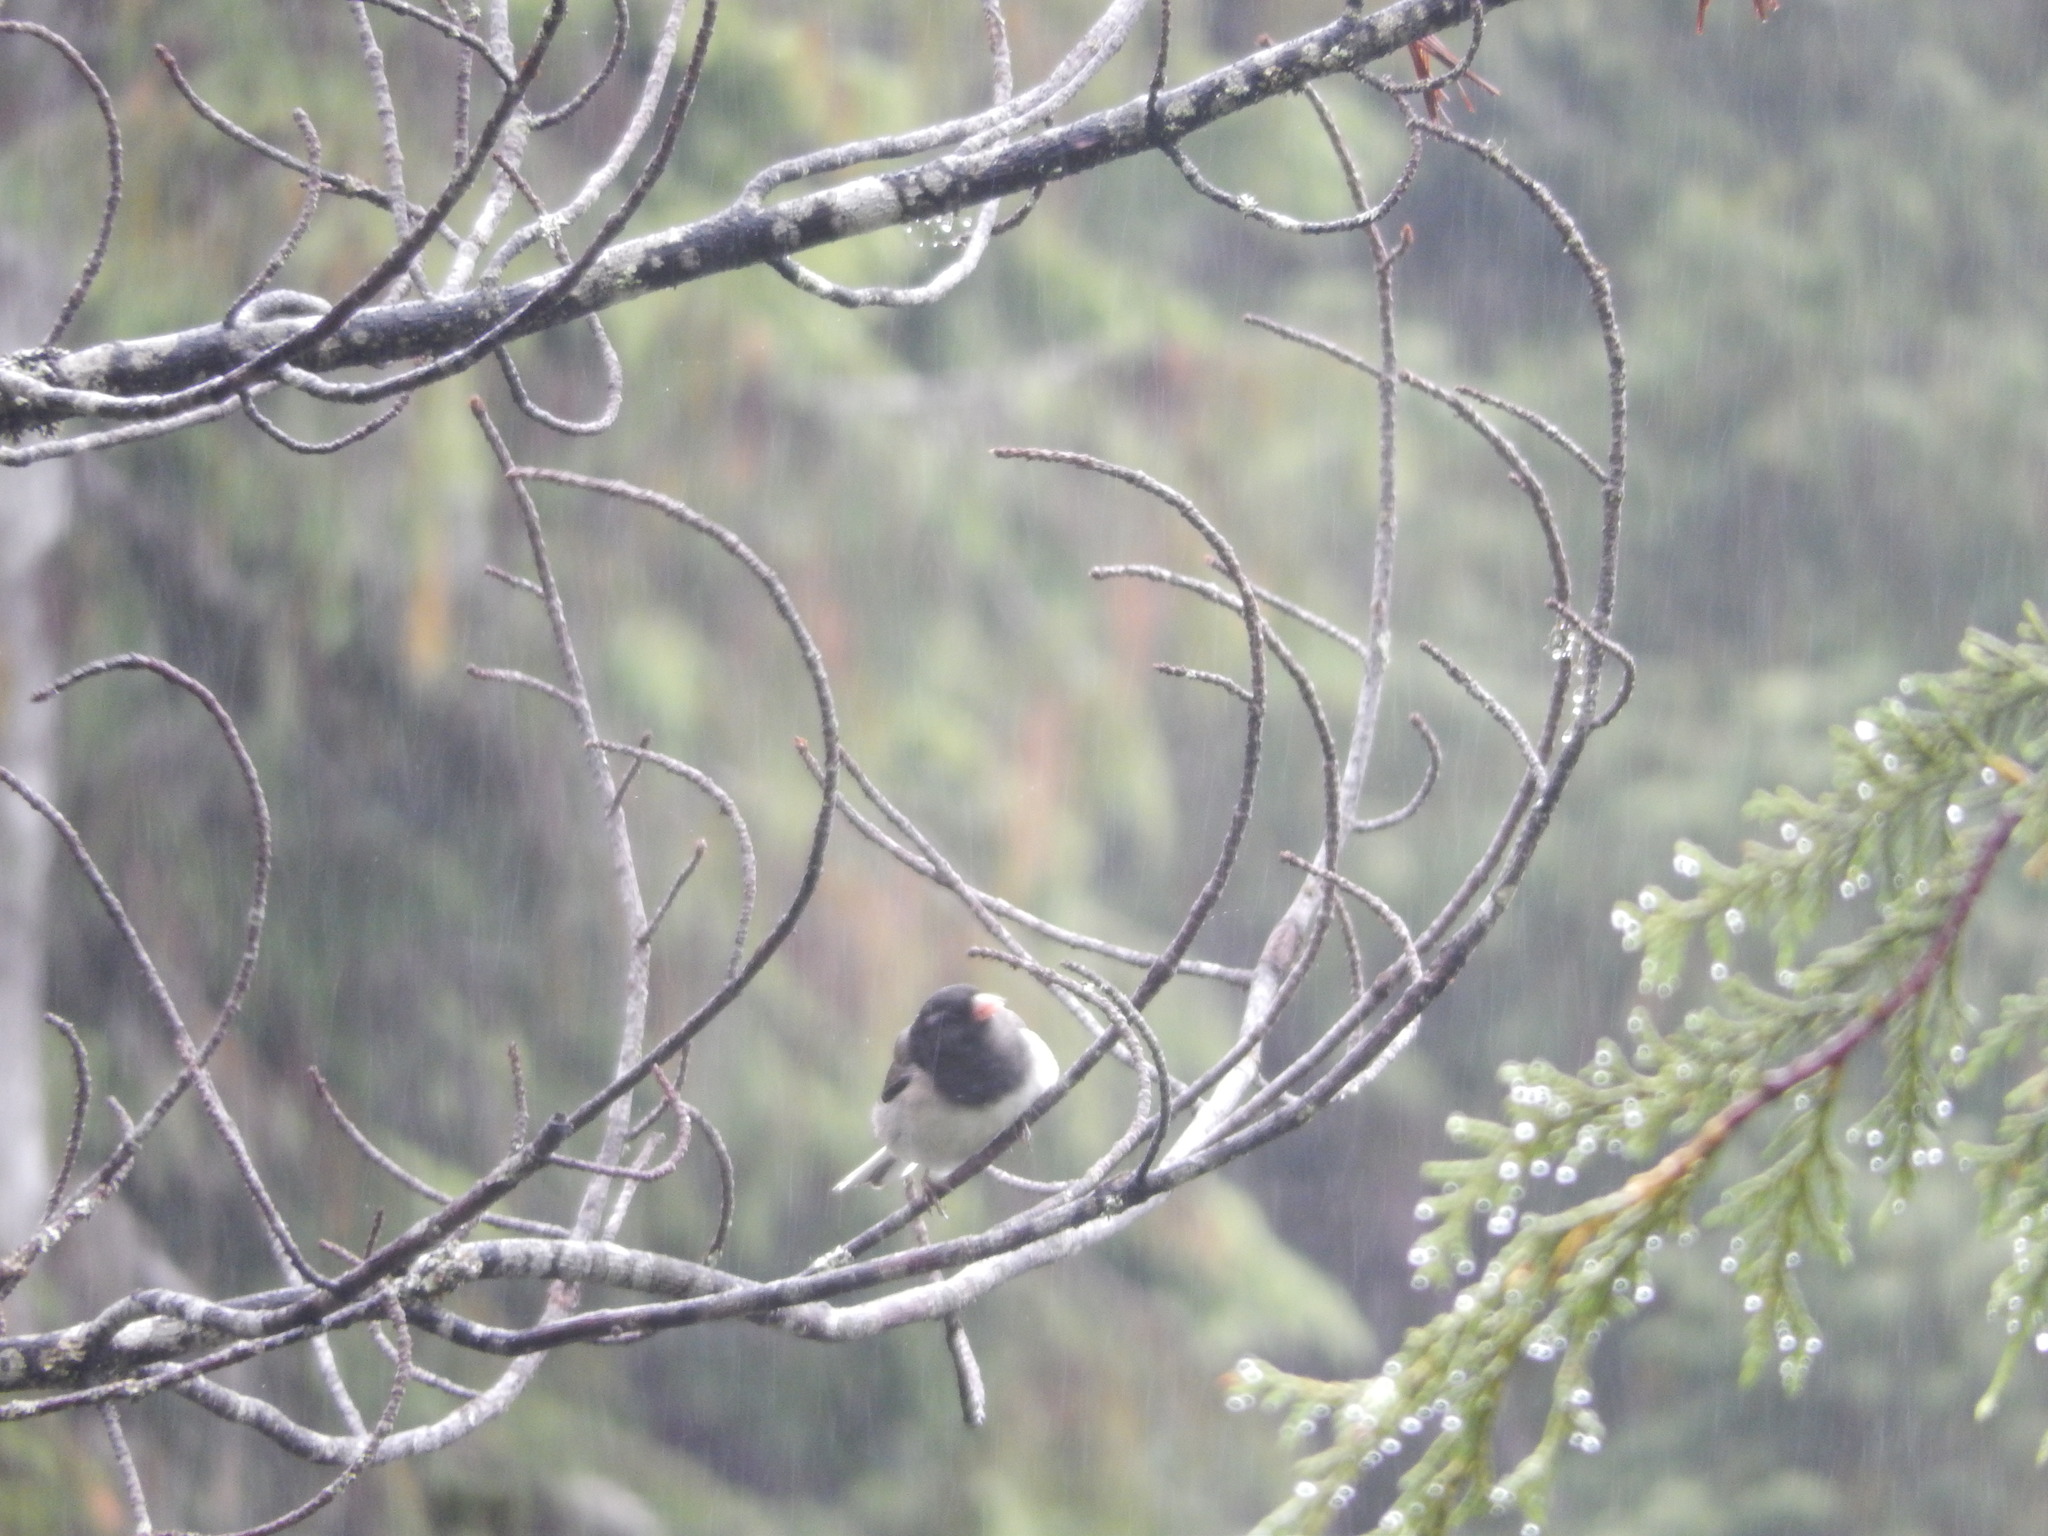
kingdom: Animalia
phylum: Chordata
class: Aves
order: Passeriformes
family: Passerellidae
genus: Junco
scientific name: Junco hyemalis
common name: Dark-eyed junco
